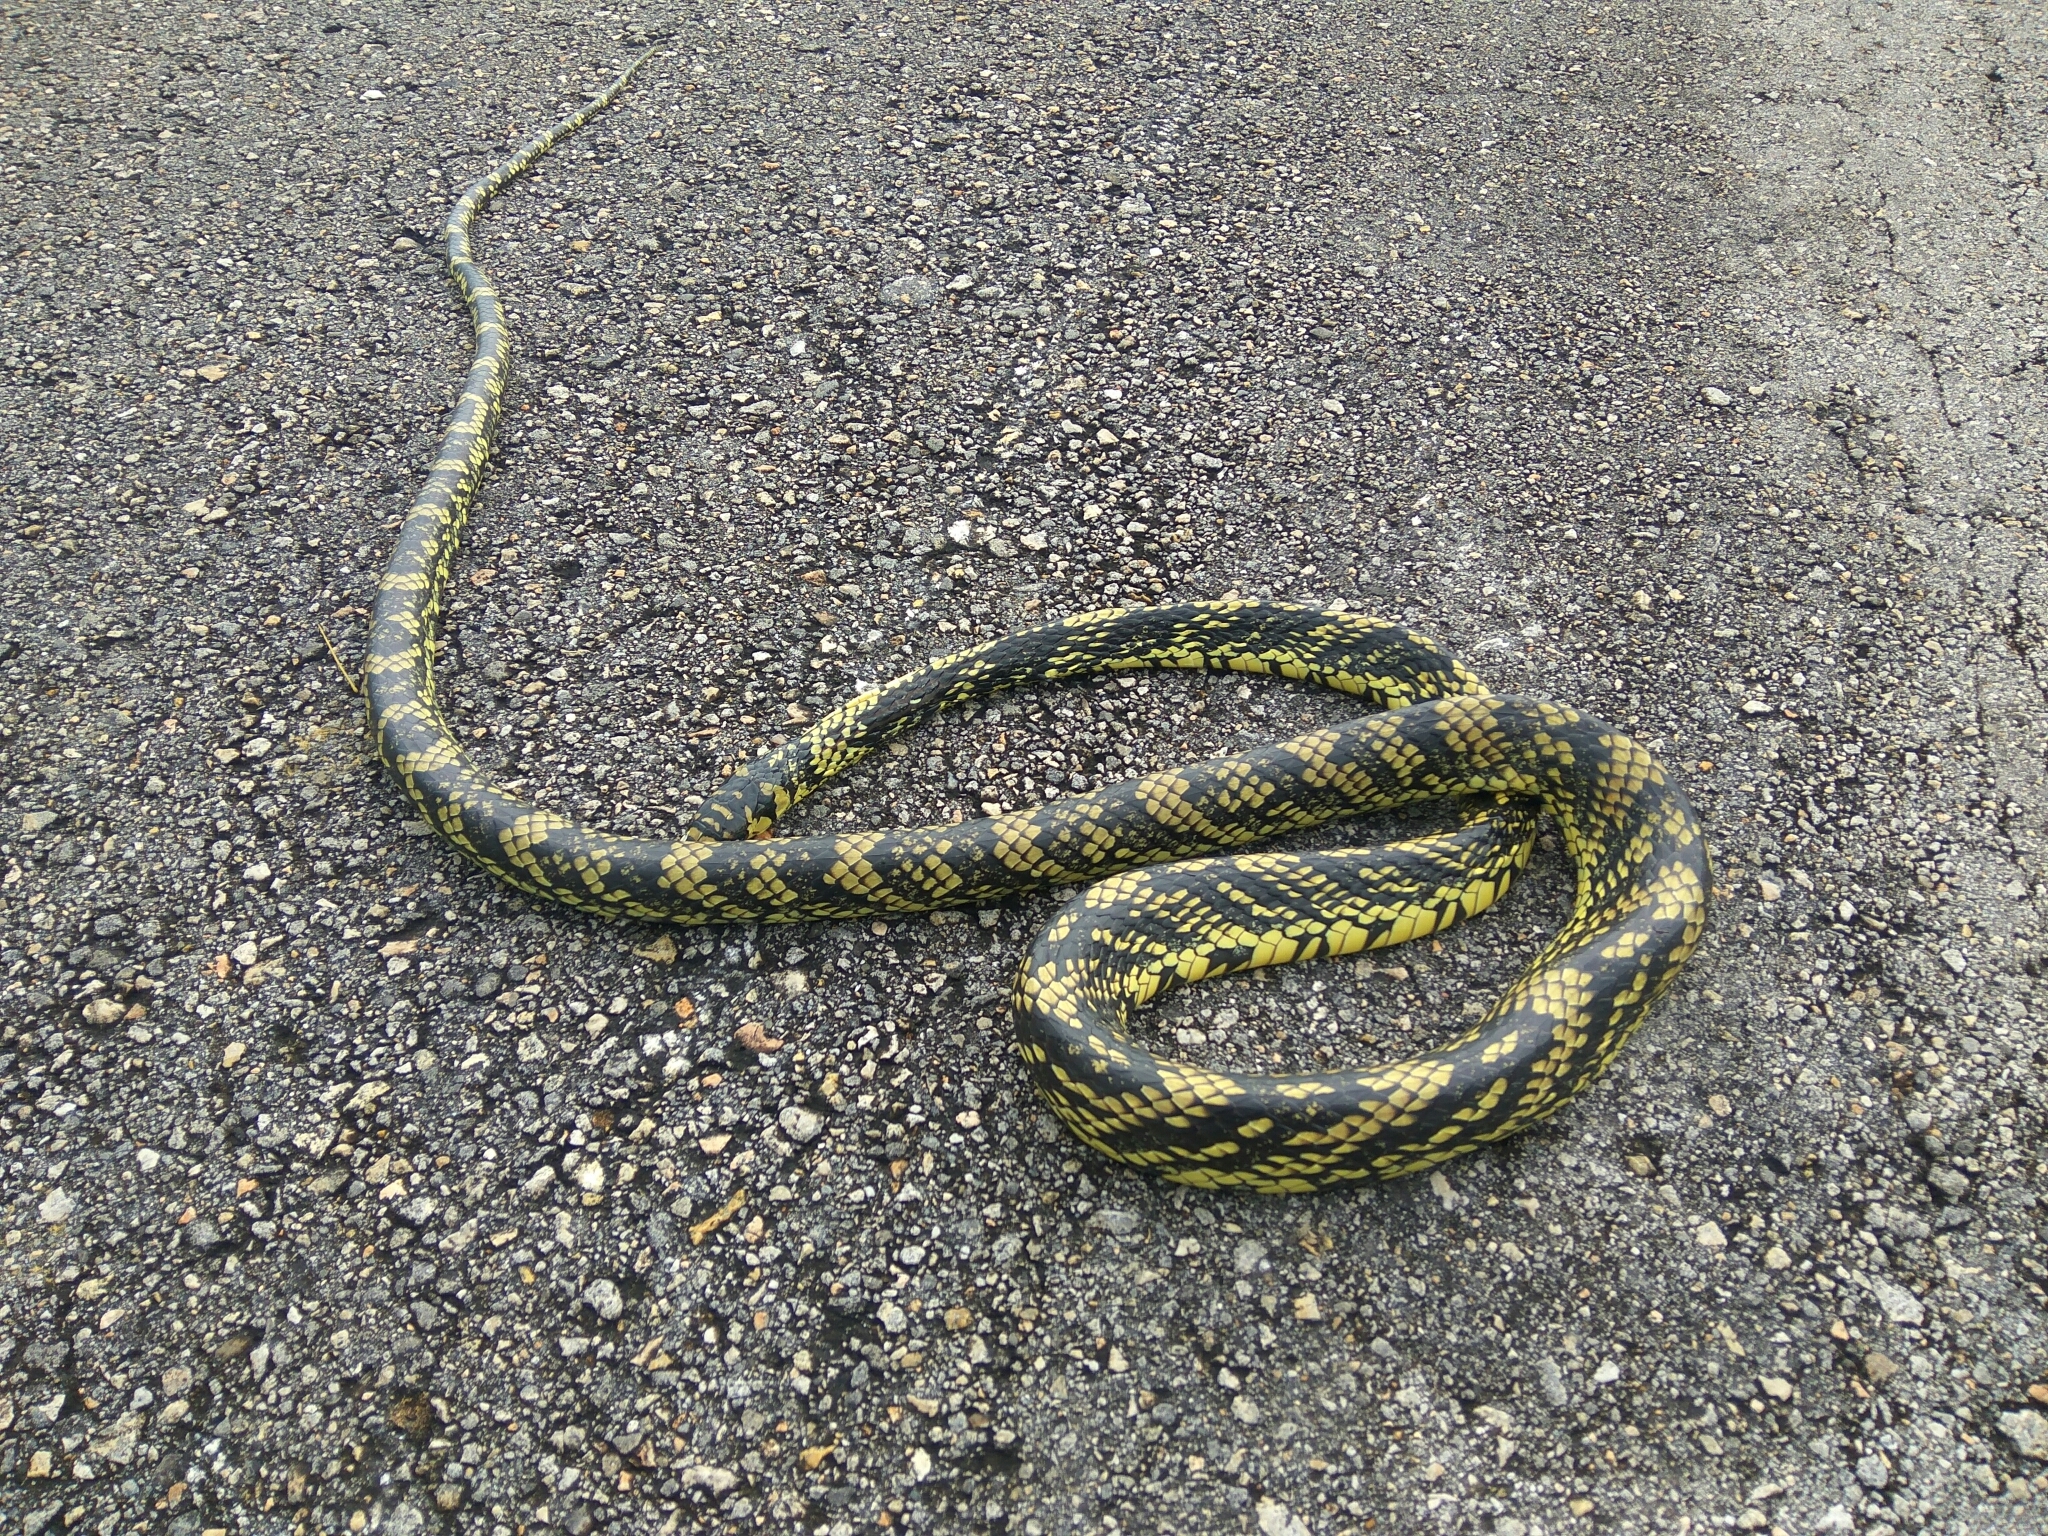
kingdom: Animalia
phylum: Chordata
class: Squamata
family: Colubridae
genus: Spilotes
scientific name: Spilotes pullatus
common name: Chicken snake
